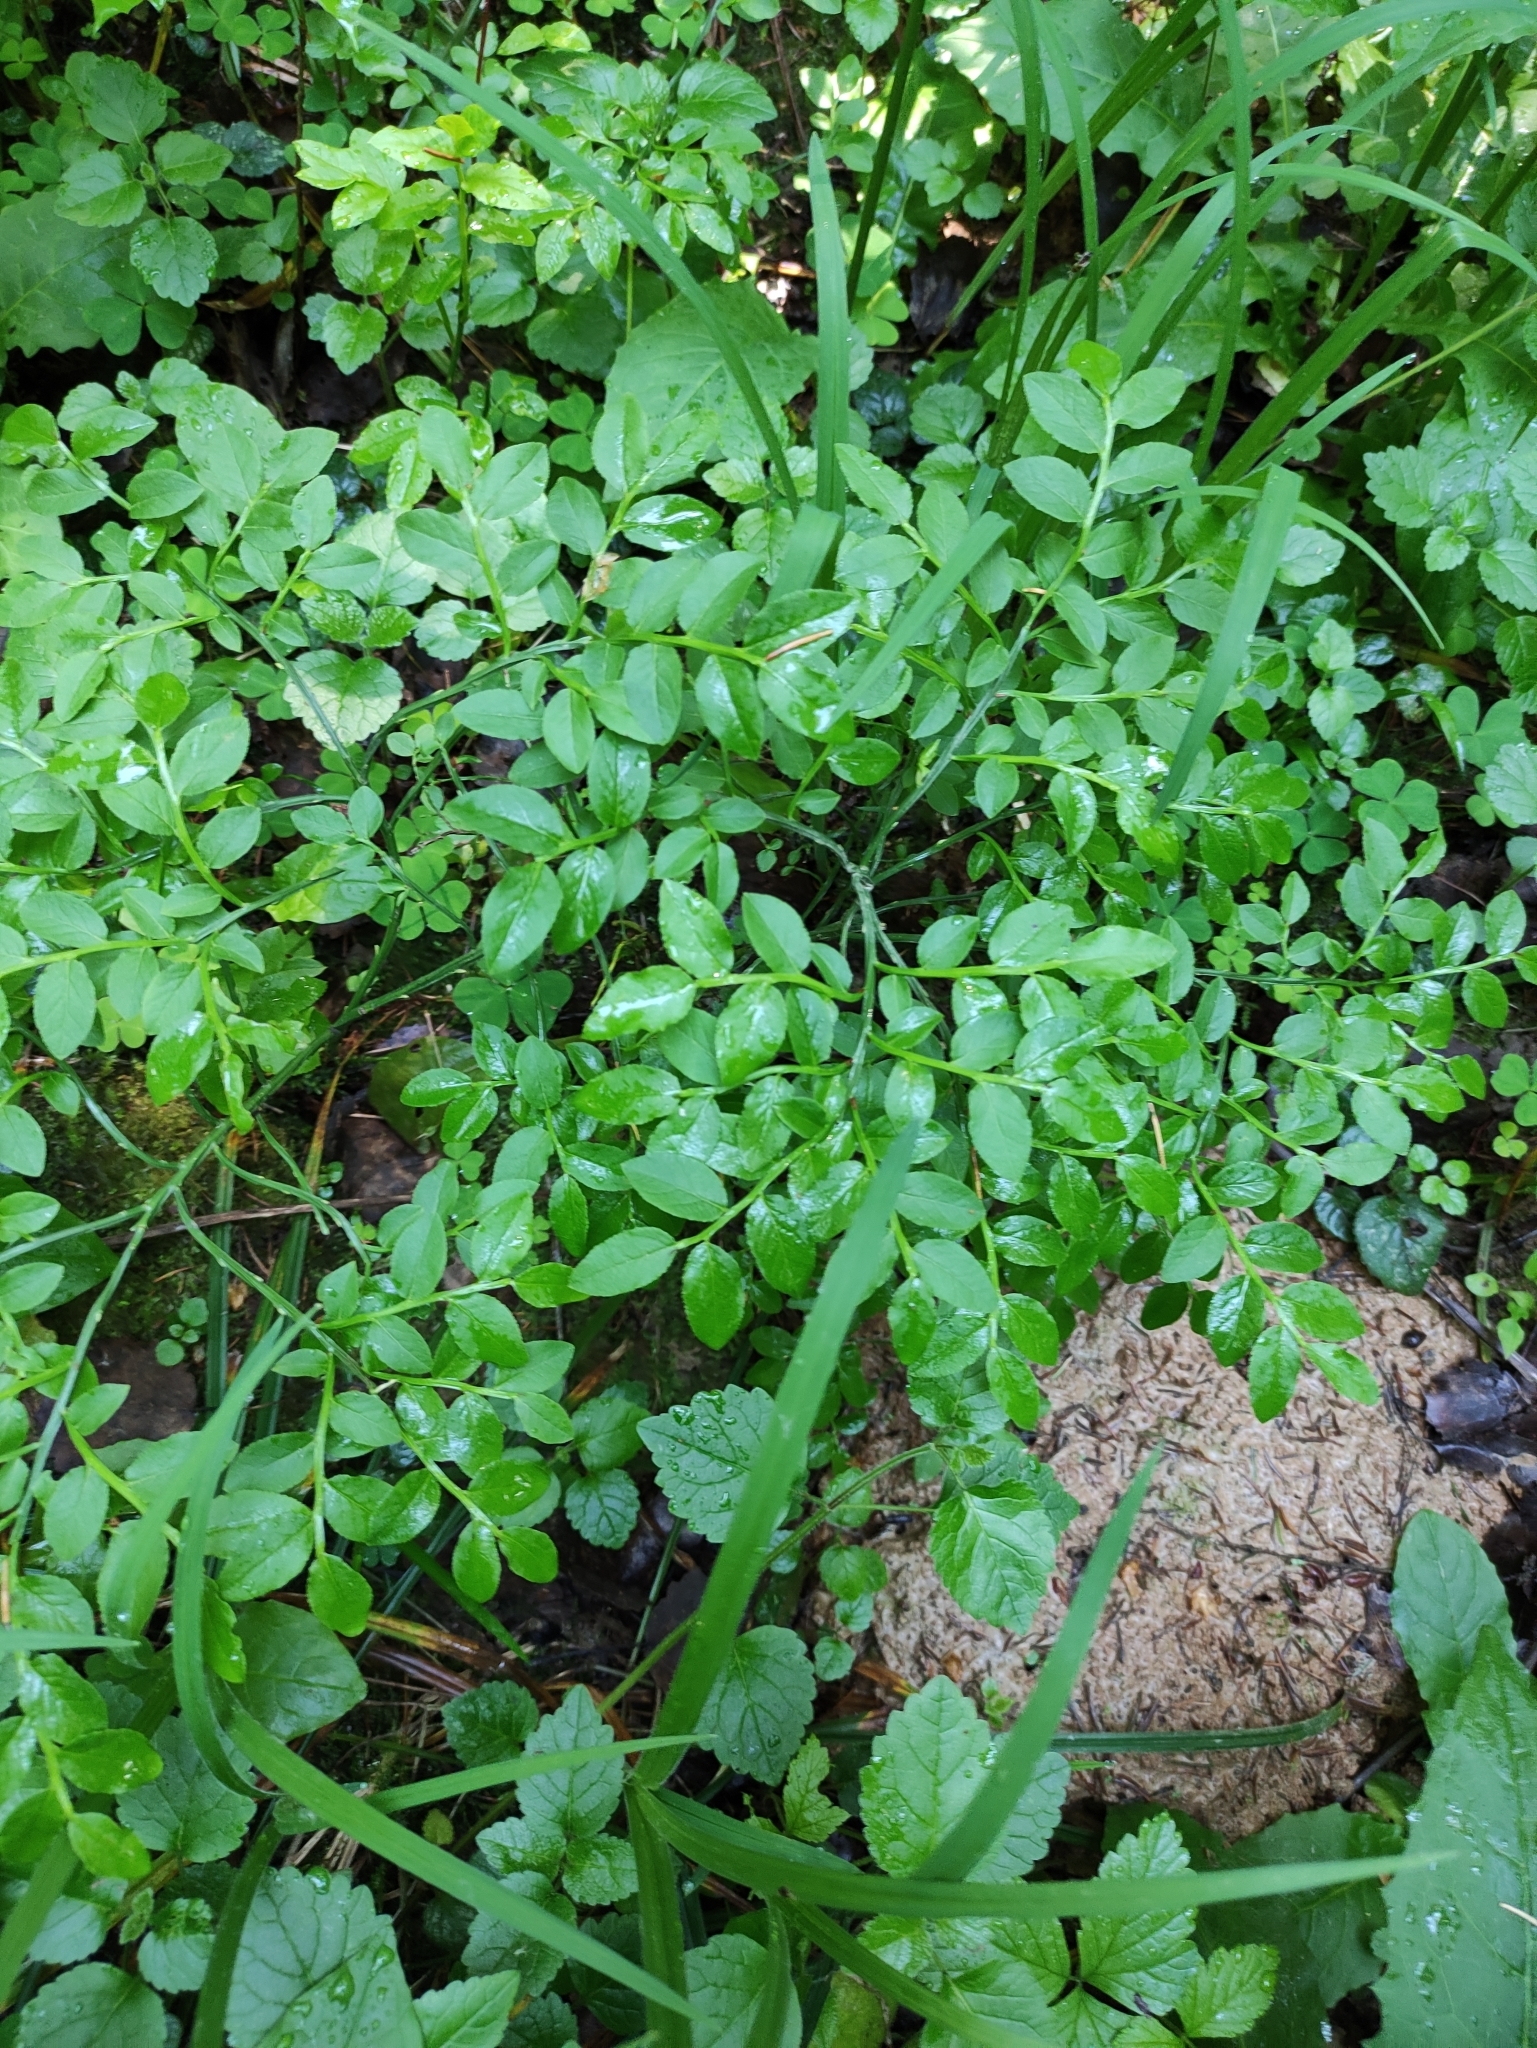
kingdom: Plantae
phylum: Tracheophyta
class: Magnoliopsida
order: Ericales
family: Ericaceae
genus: Vaccinium
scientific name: Vaccinium myrtillus
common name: Bilberry
